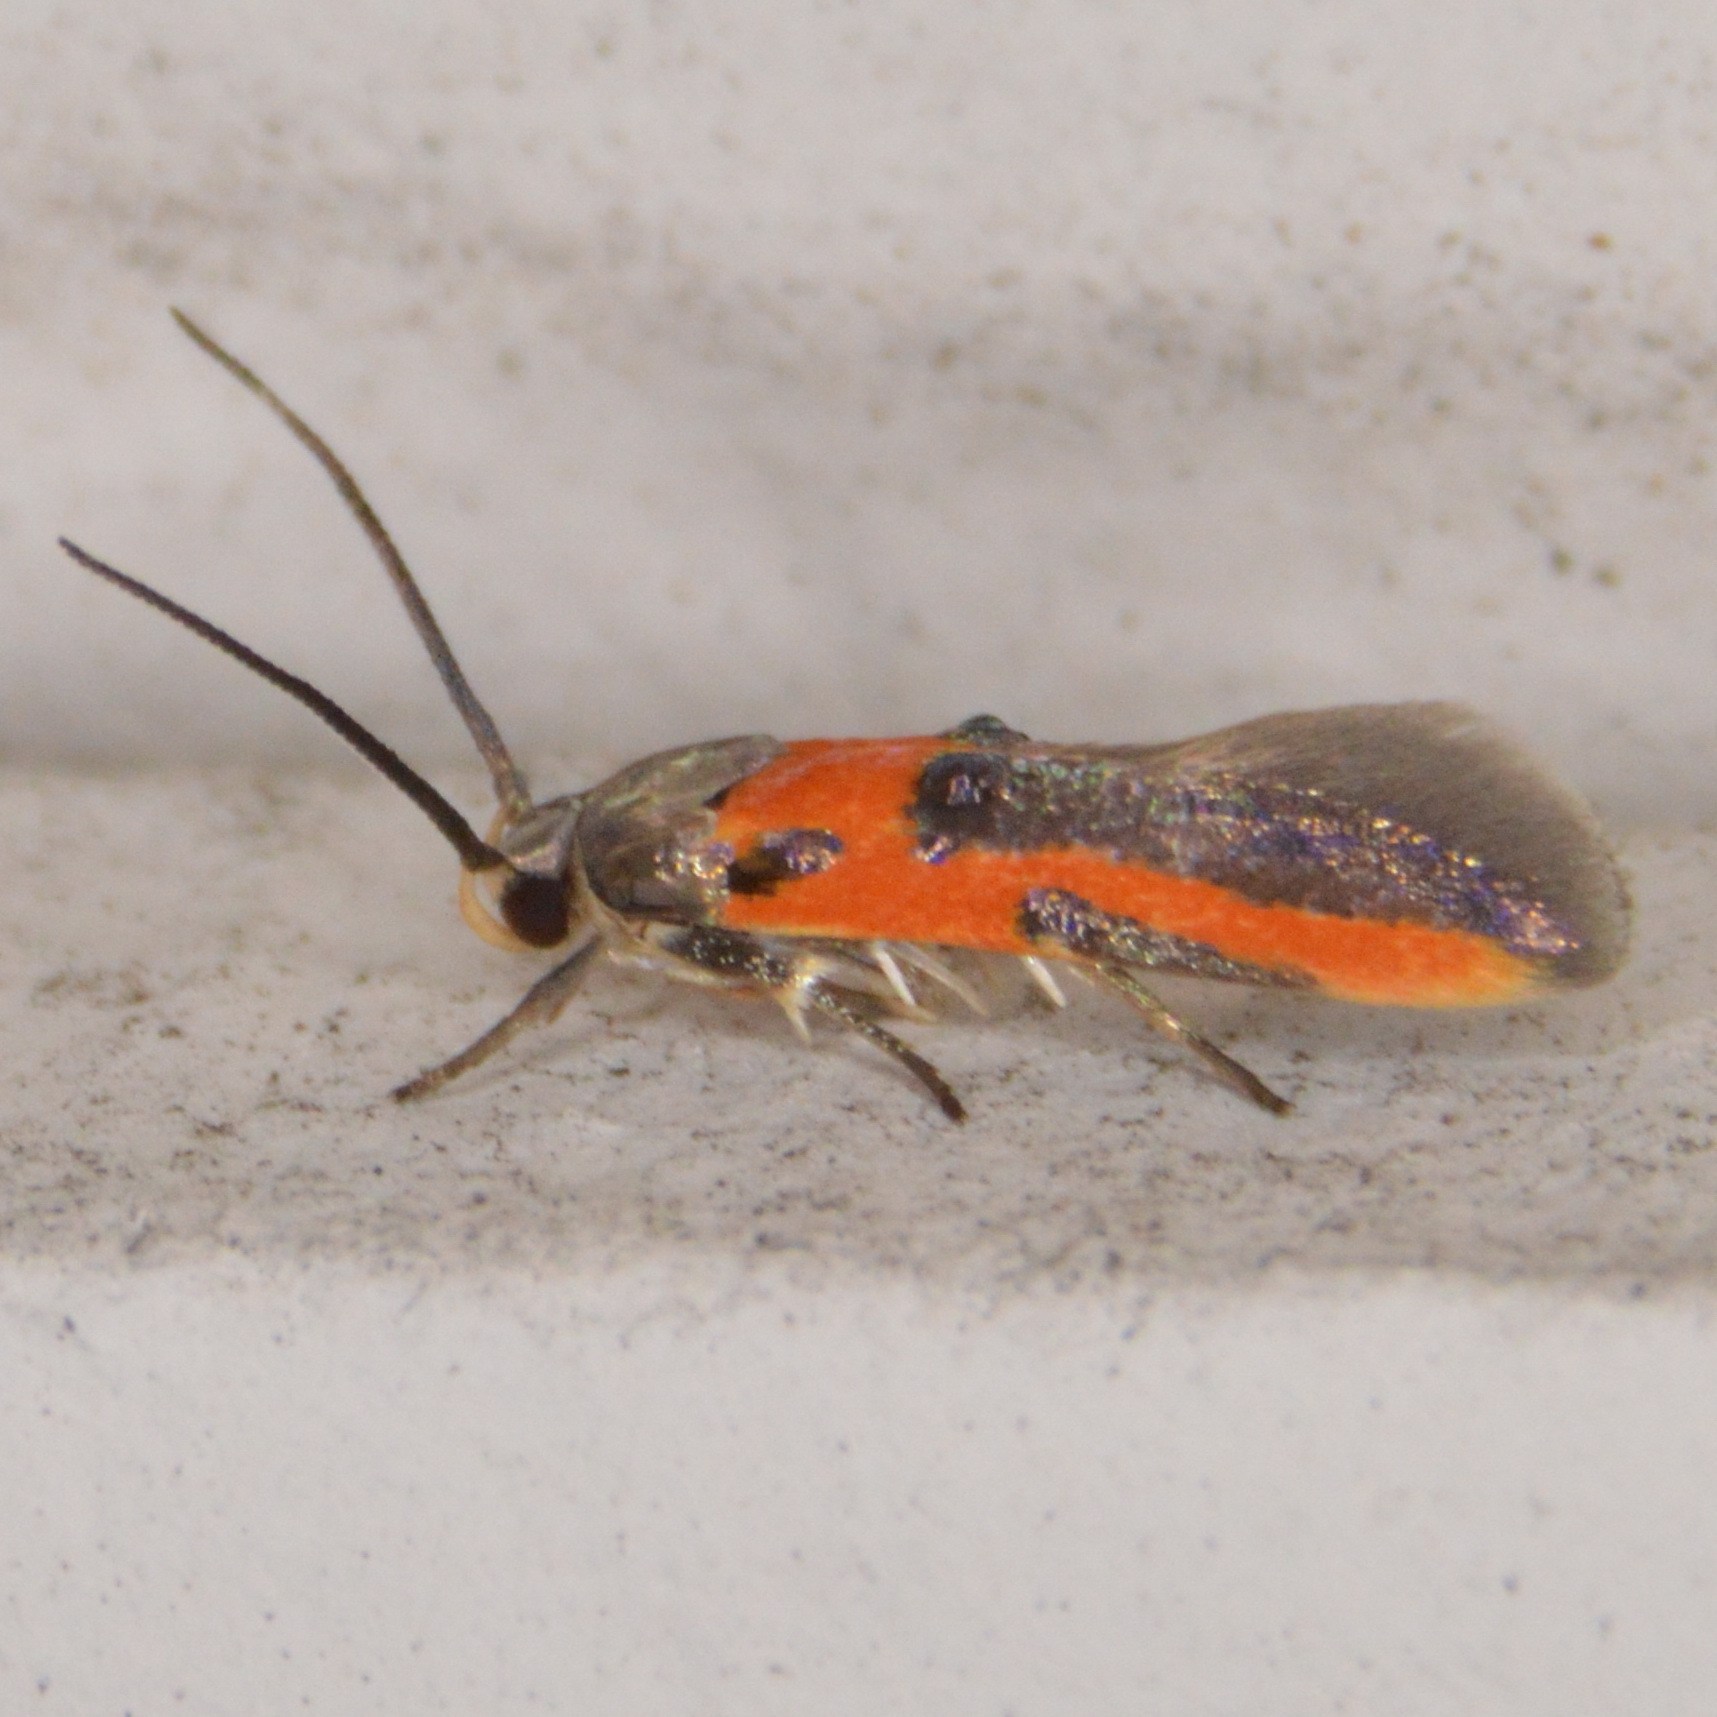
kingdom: Animalia
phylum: Arthropoda
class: Insecta
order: Lepidoptera
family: Cosmopterigidae
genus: Euclemensia
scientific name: Euclemensia bassettella
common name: Kermes scale moth
